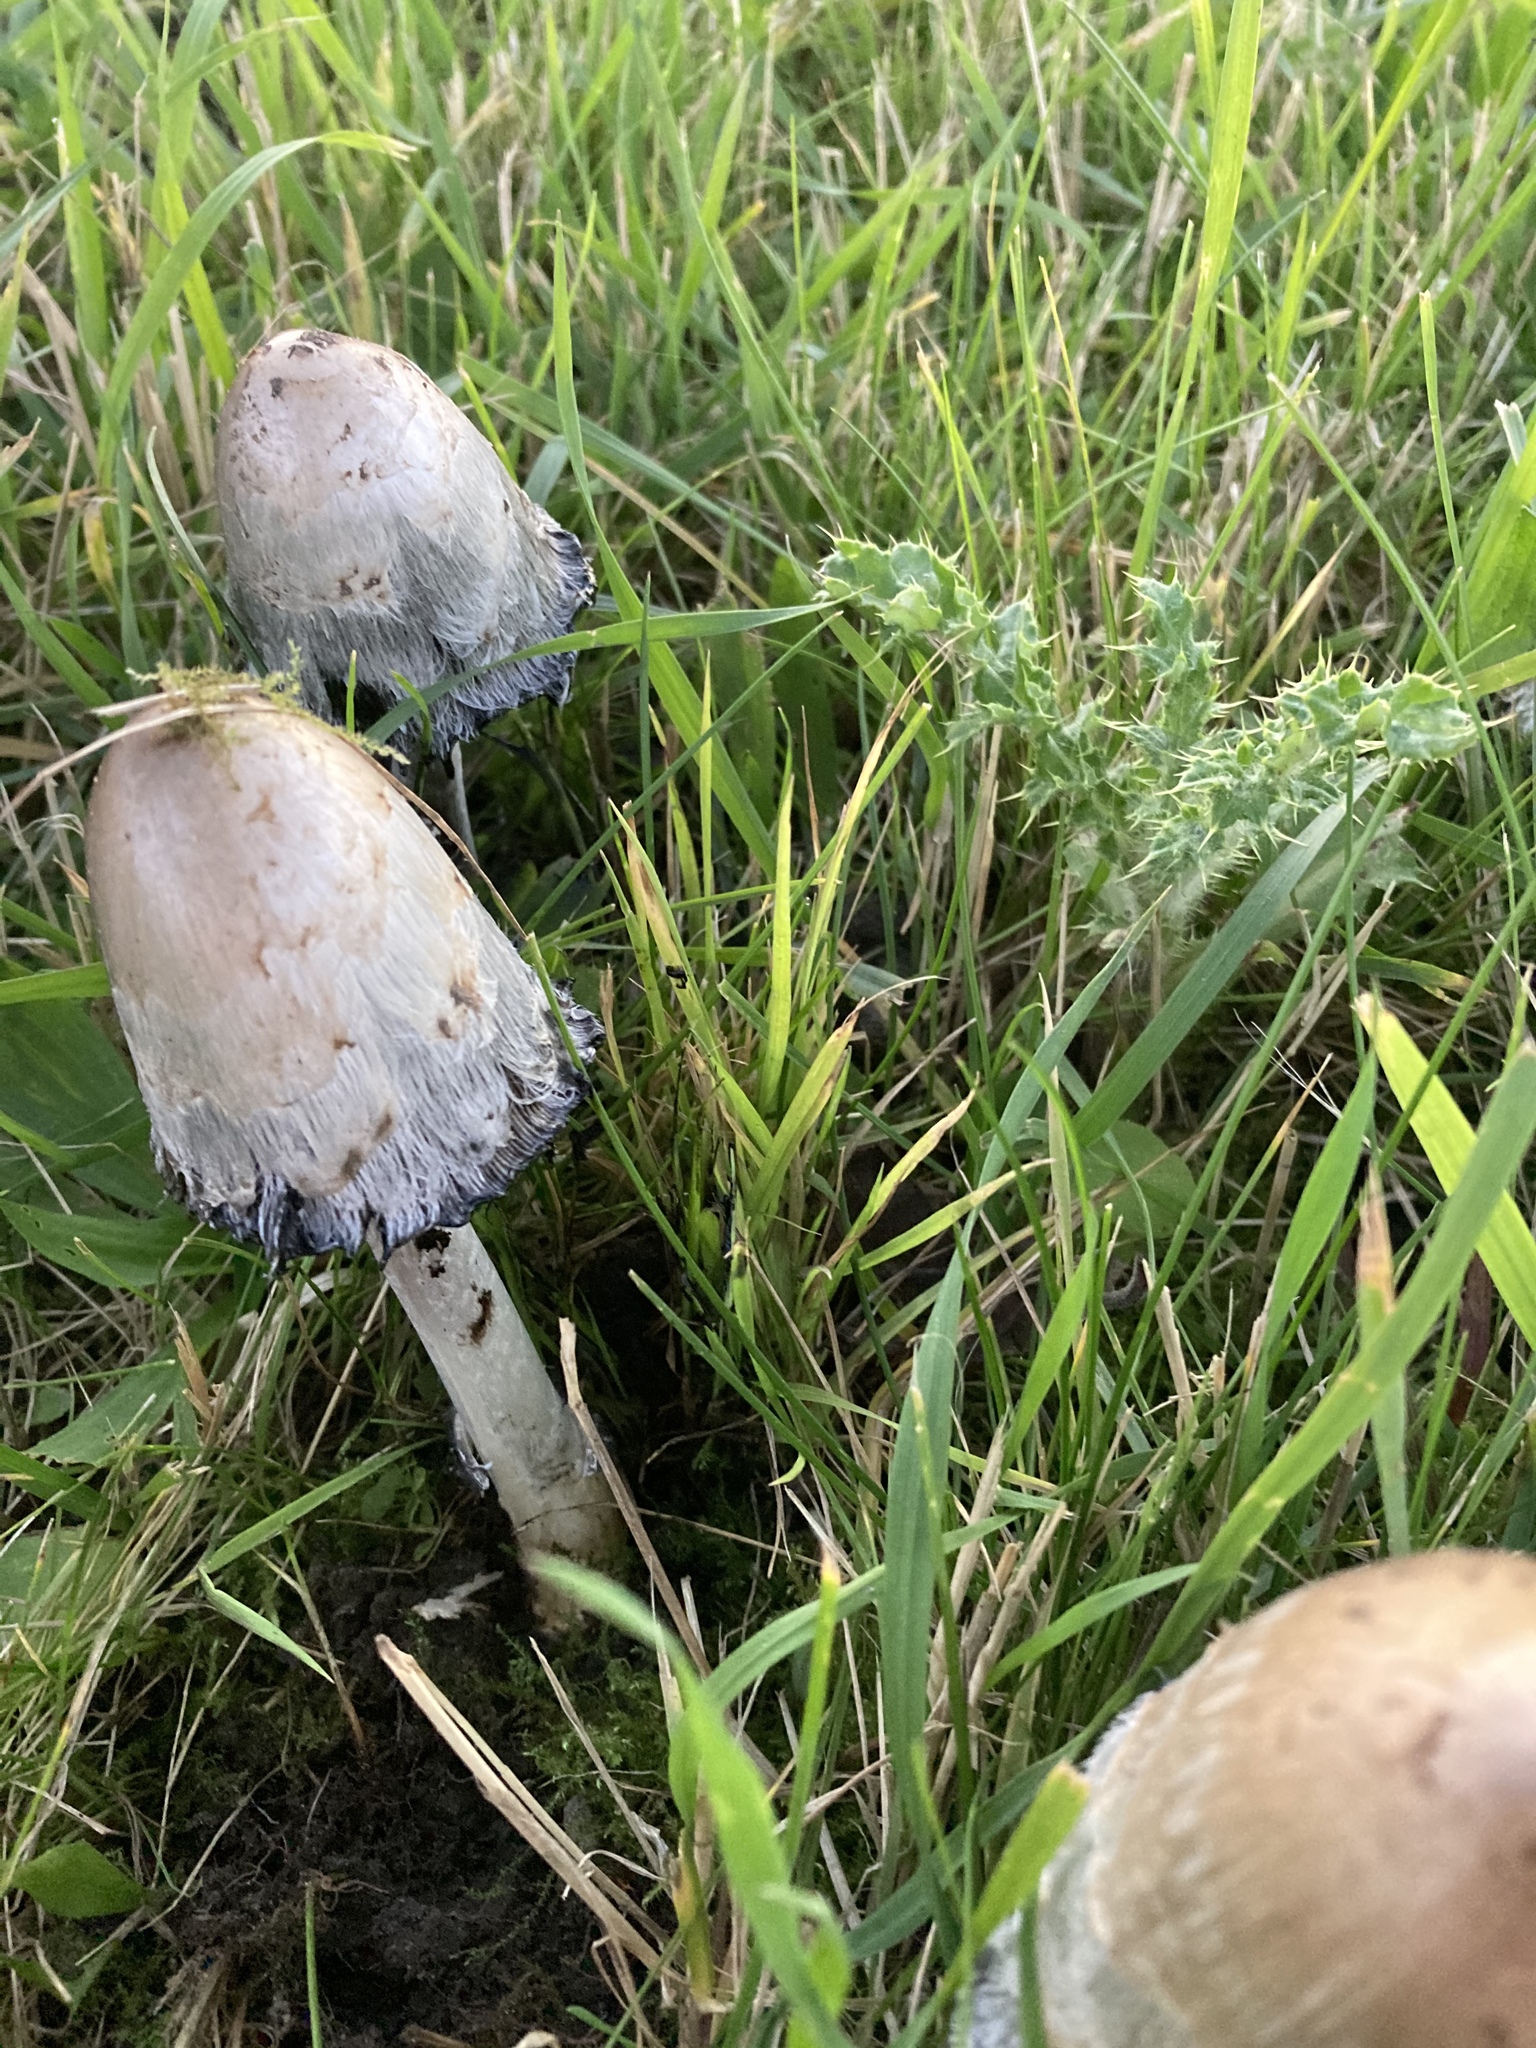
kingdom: Fungi
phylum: Basidiomycota
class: Agaricomycetes
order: Agaricales
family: Agaricaceae
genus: Coprinus
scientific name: Coprinus comatus
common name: Lawyer's wig
